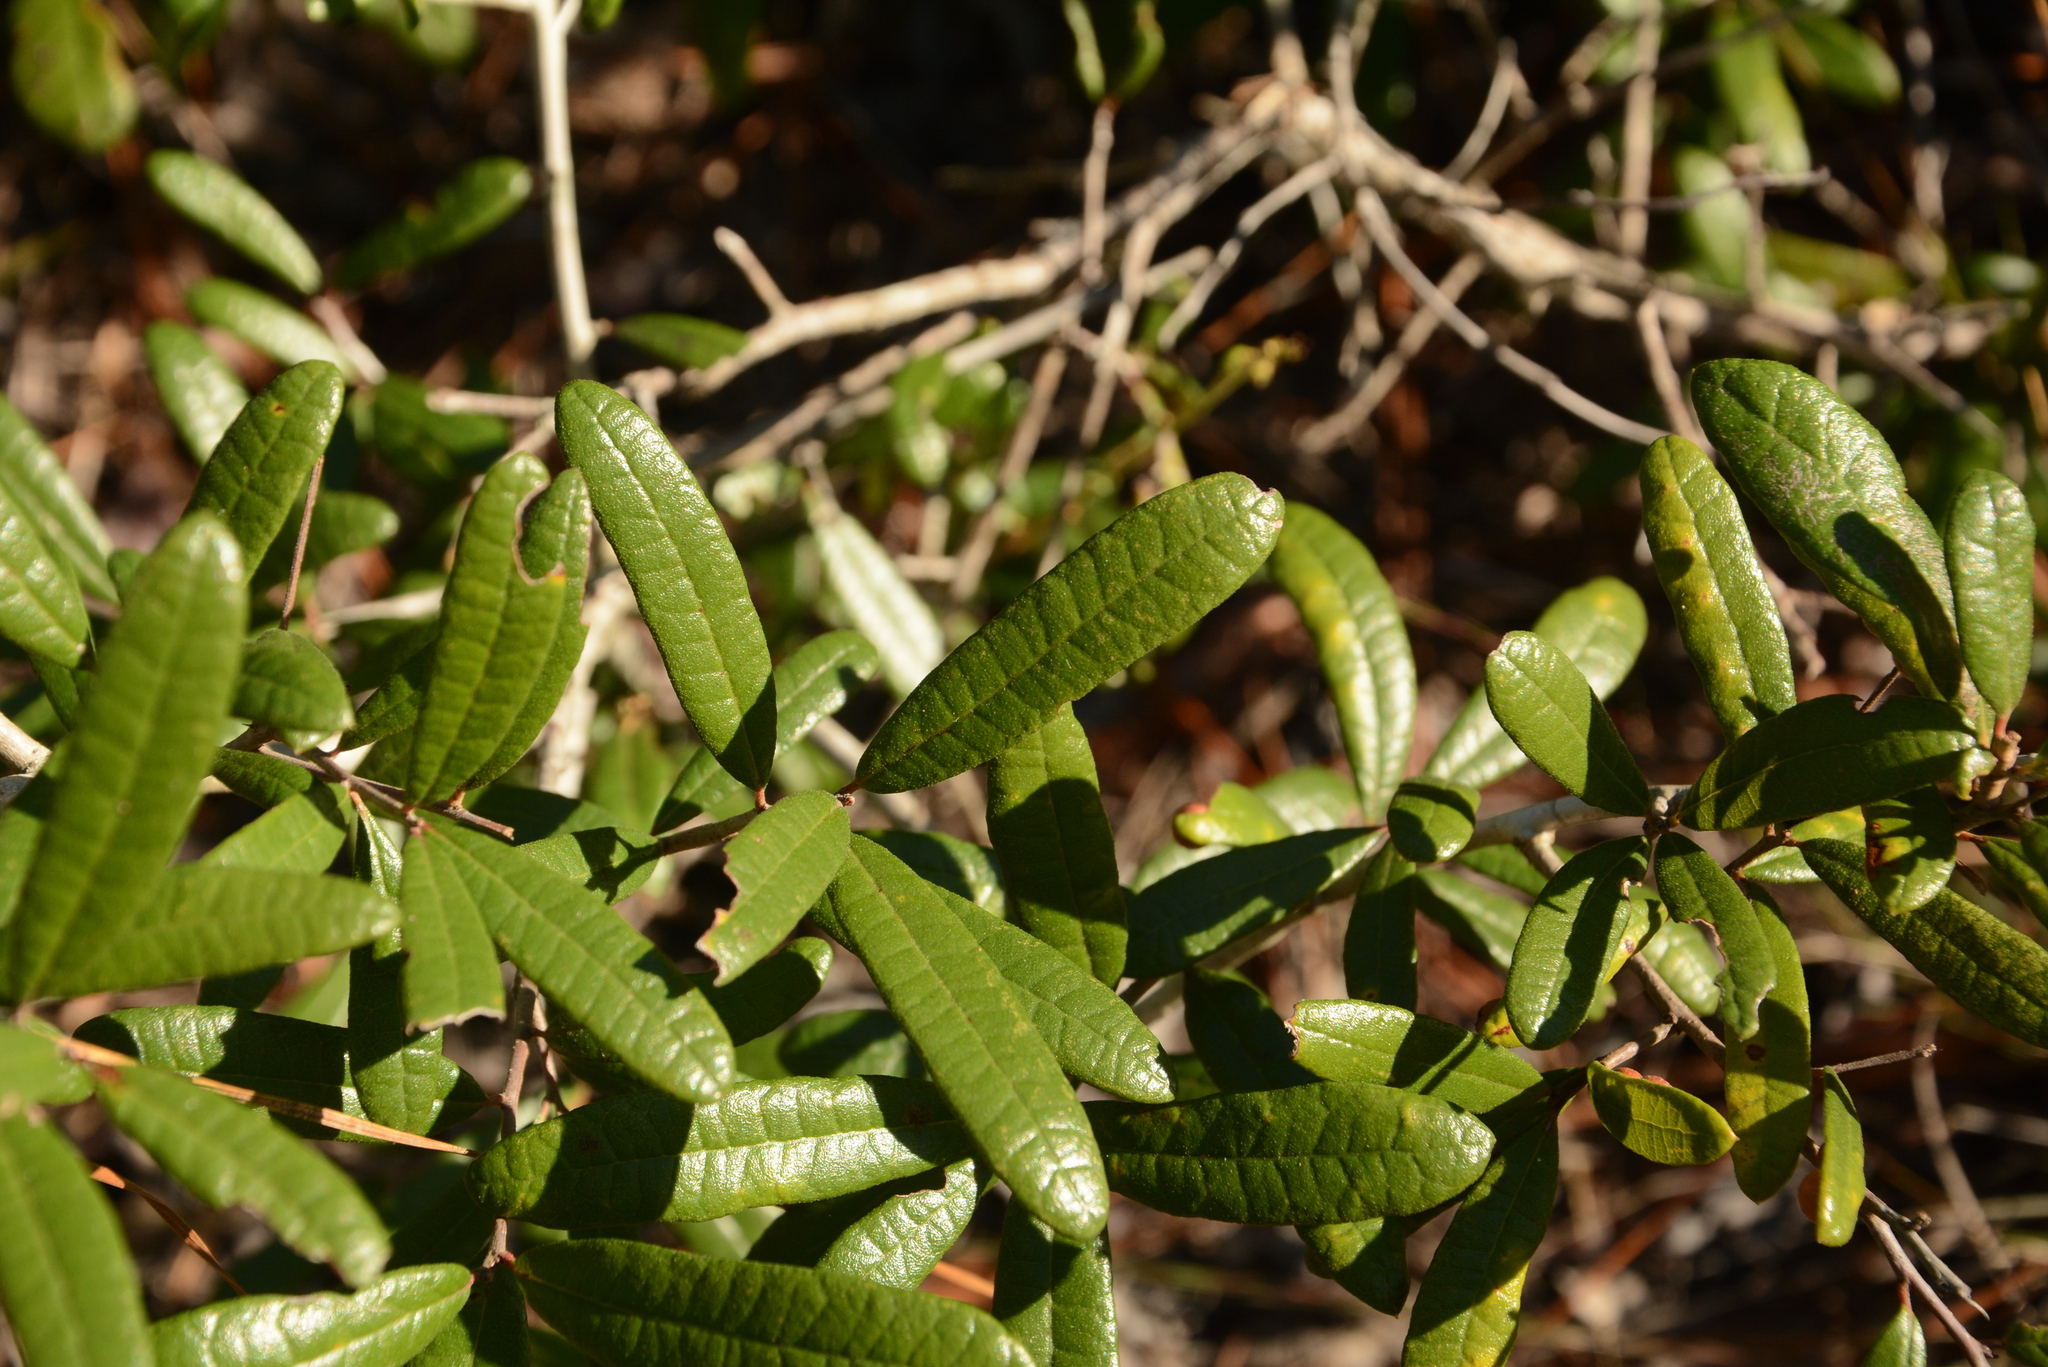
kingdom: Plantae
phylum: Tracheophyta
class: Magnoliopsida
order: Fagales
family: Fagaceae
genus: Quercus
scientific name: Quercus geminata
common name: Sand live oak
